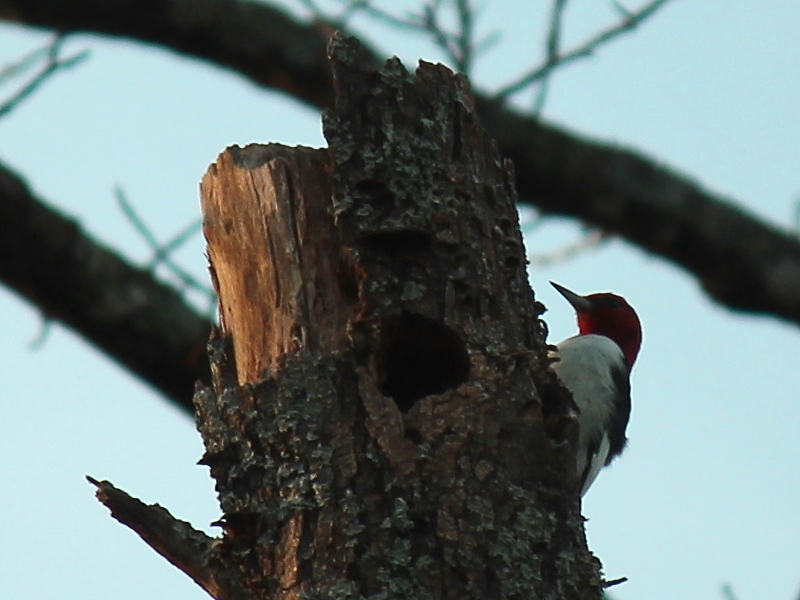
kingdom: Animalia
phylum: Chordata
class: Aves
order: Piciformes
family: Picidae
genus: Melanerpes
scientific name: Melanerpes erythrocephalus
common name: Red-headed woodpecker
